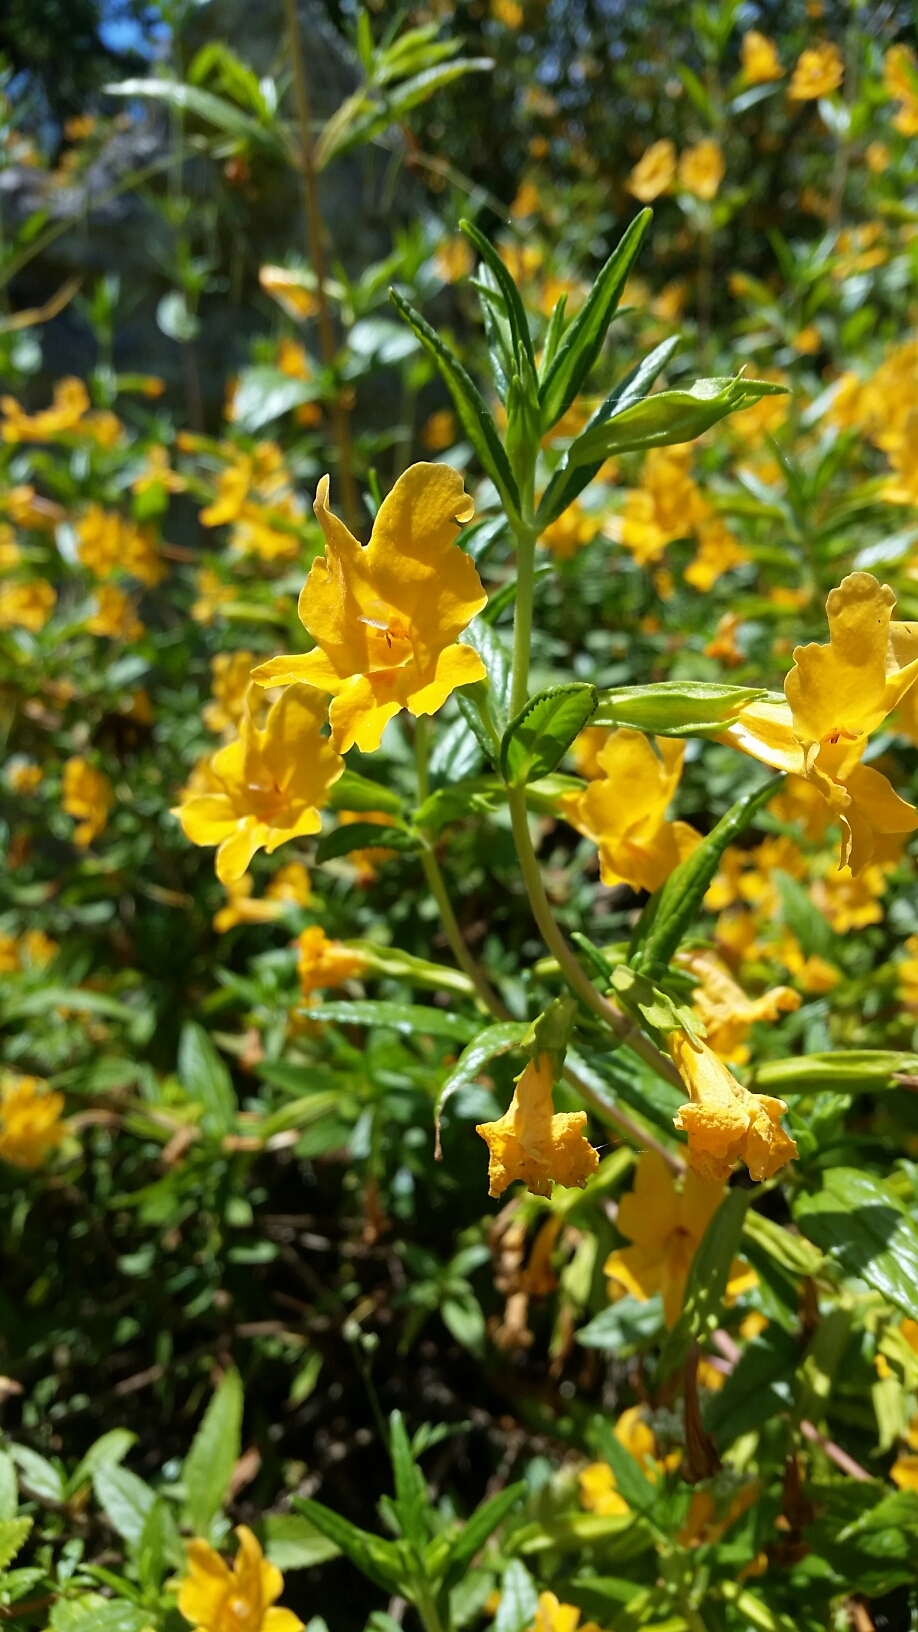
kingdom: Plantae
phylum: Tracheophyta
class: Magnoliopsida
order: Lamiales
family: Phrymaceae
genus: Diplacus
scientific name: Diplacus aurantiacus
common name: Bush monkey-flower
